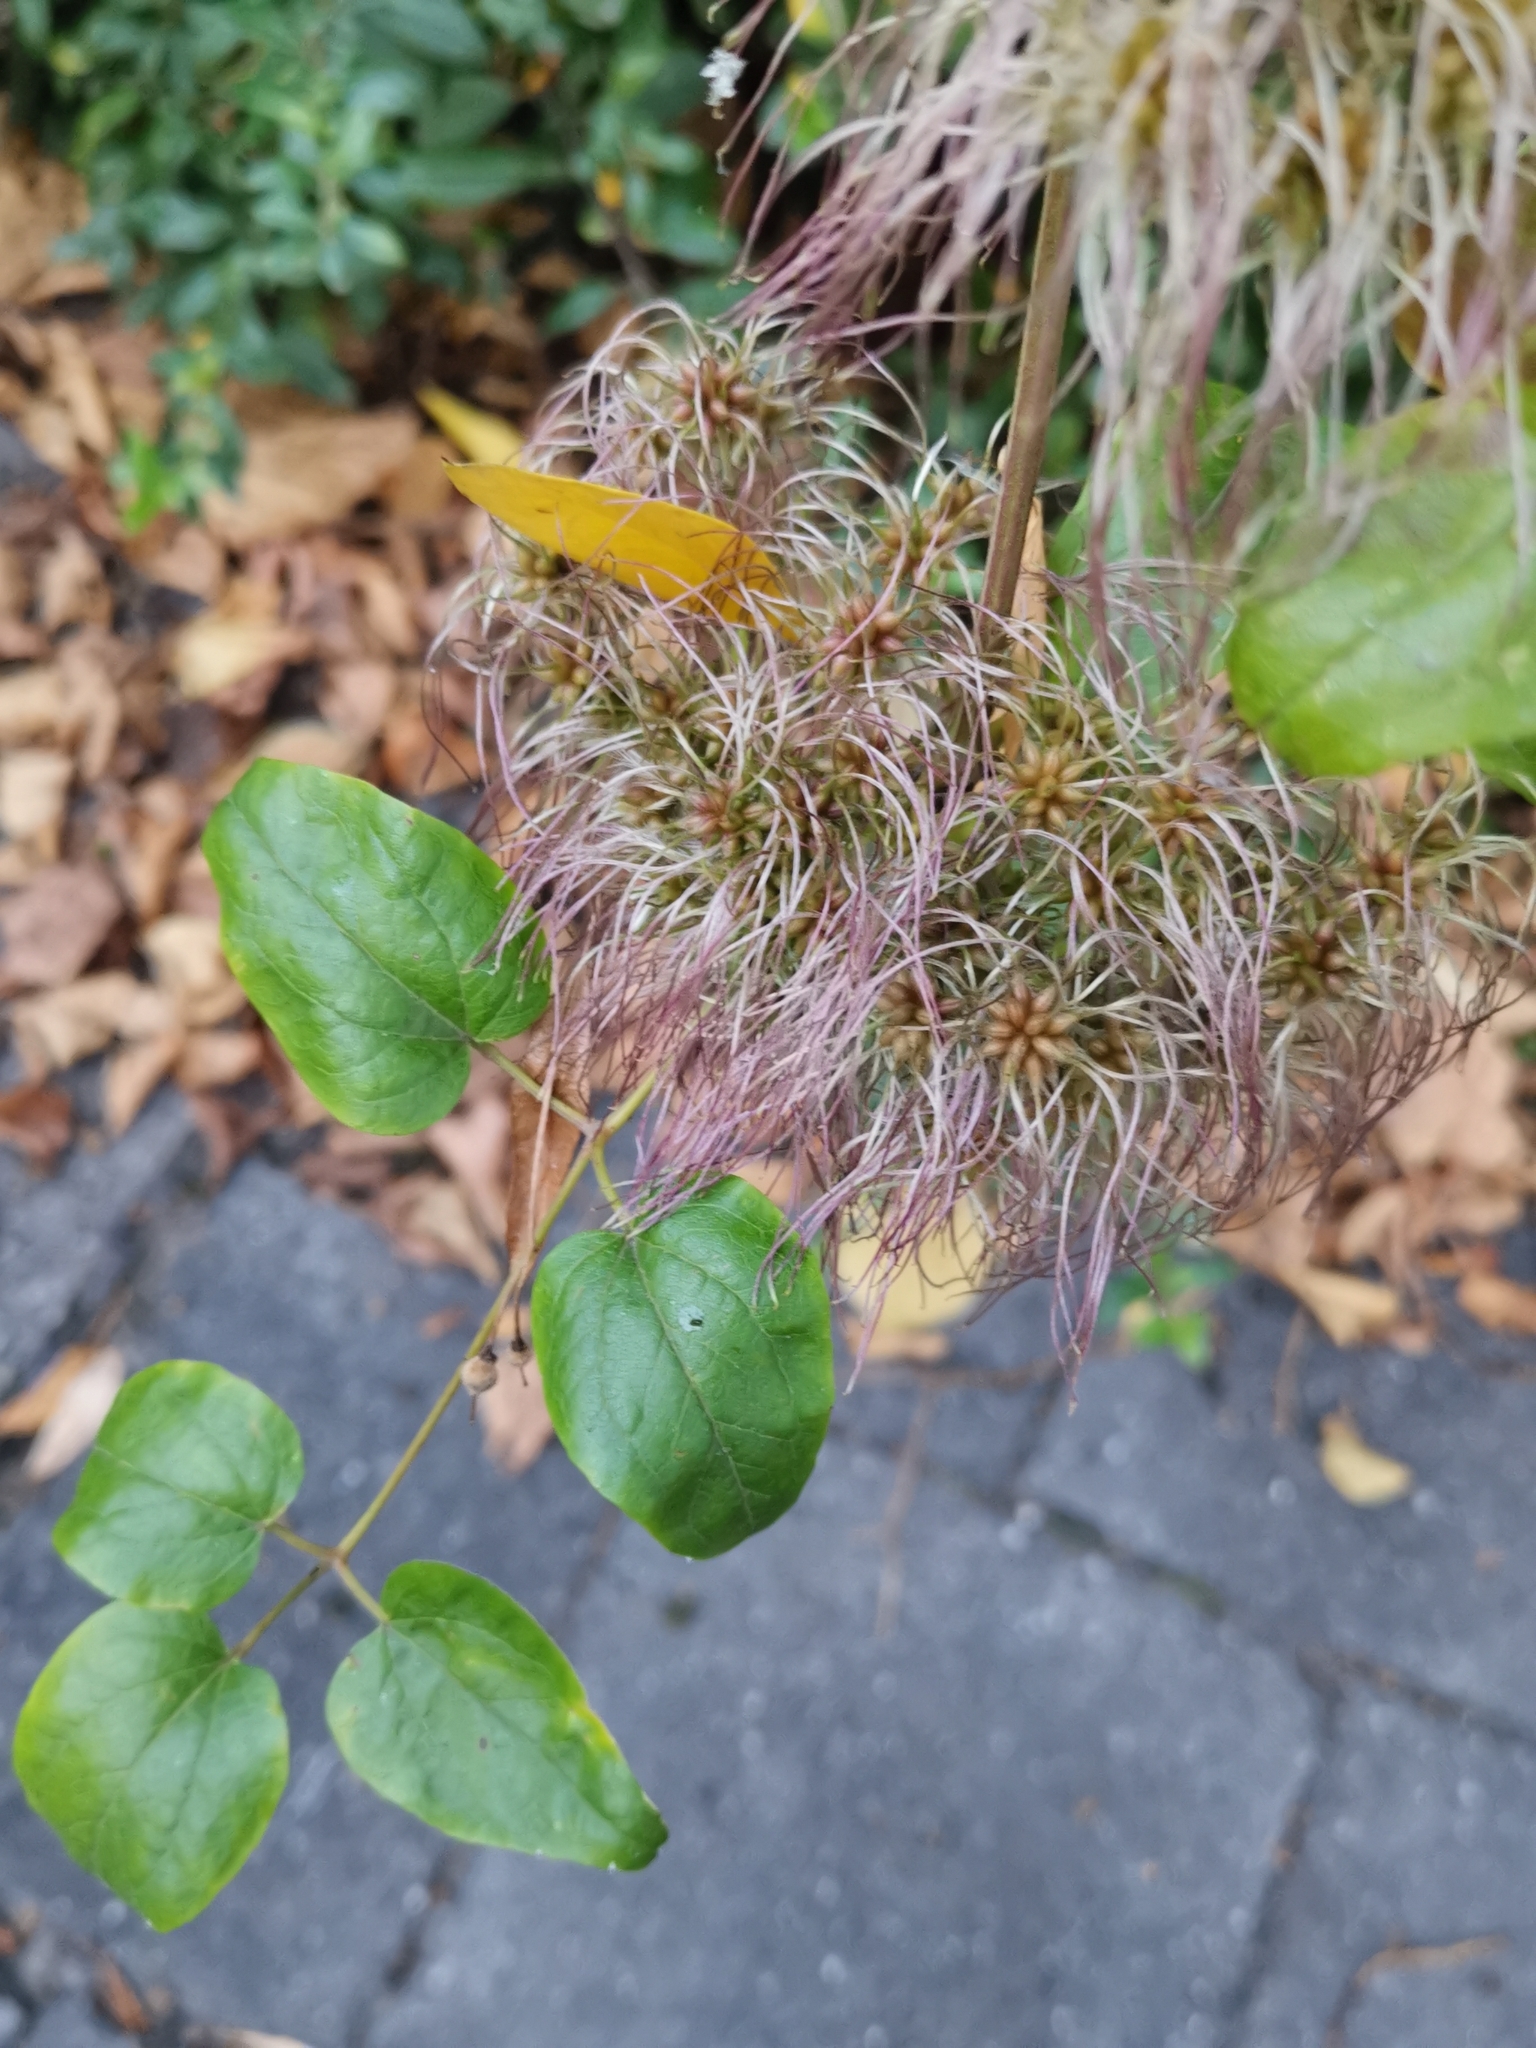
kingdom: Plantae
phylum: Tracheophyta
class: Magnoliopsida
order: Ranunculales
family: Ranunculaceae
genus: Clematis
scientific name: Clematis vitalba
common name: Evergreen clematis
